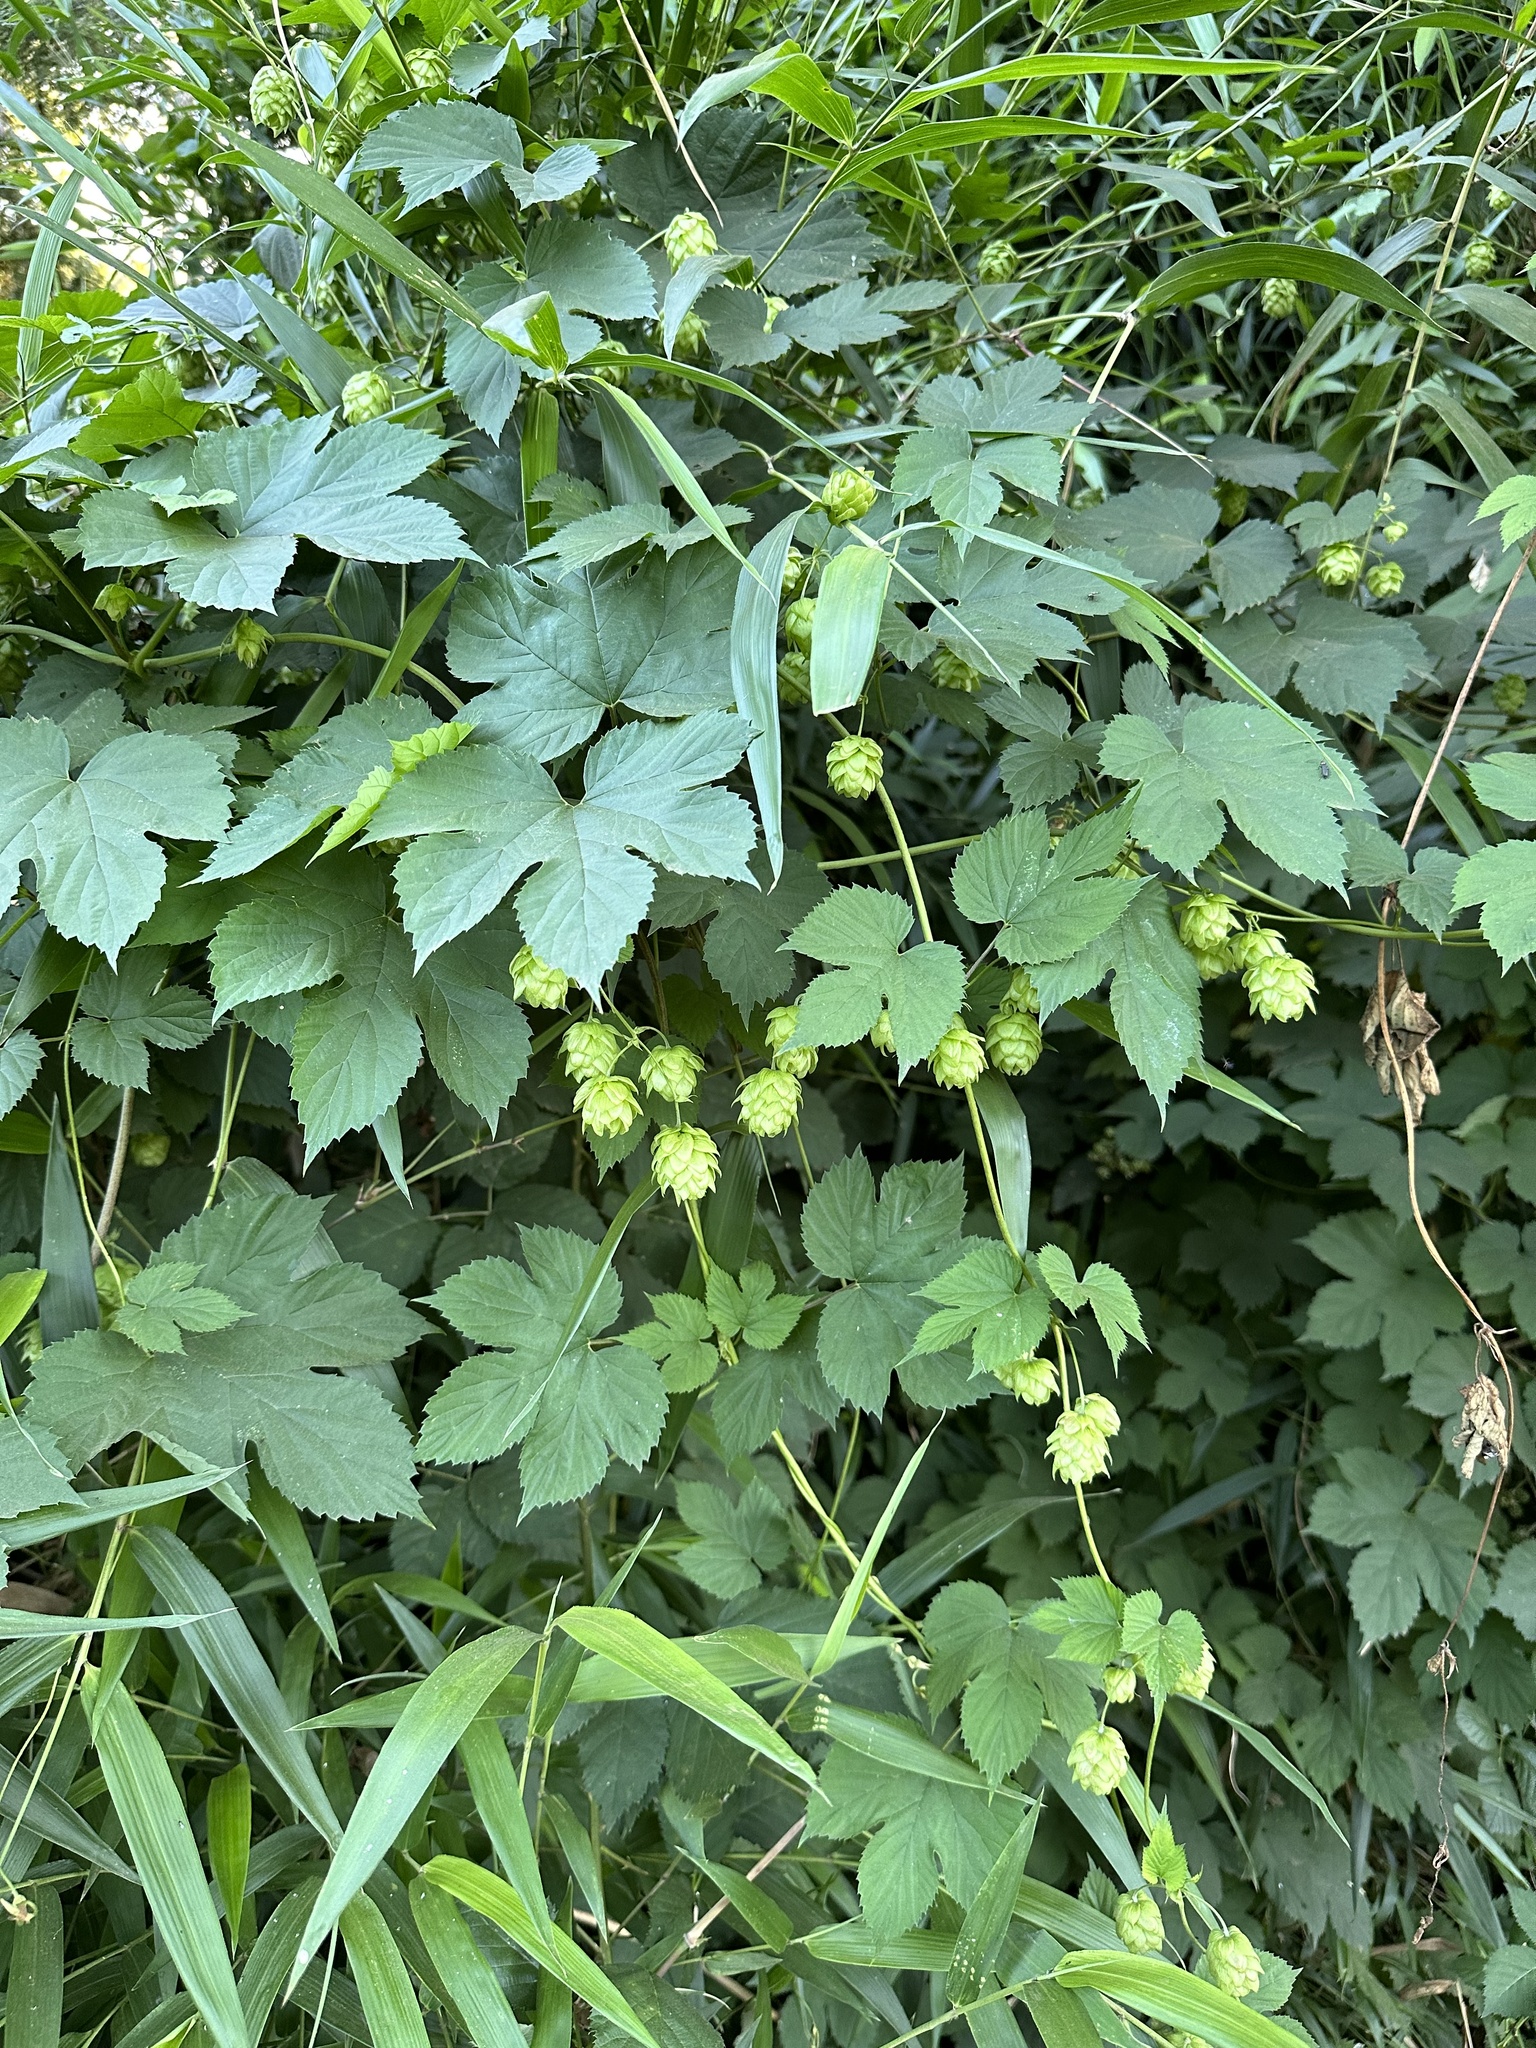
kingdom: Plantae
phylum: Tracheophyta
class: Magnoliopsida
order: Rosales
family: Cannabaceae
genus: Humulus
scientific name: Humulus lupulus
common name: Hop
